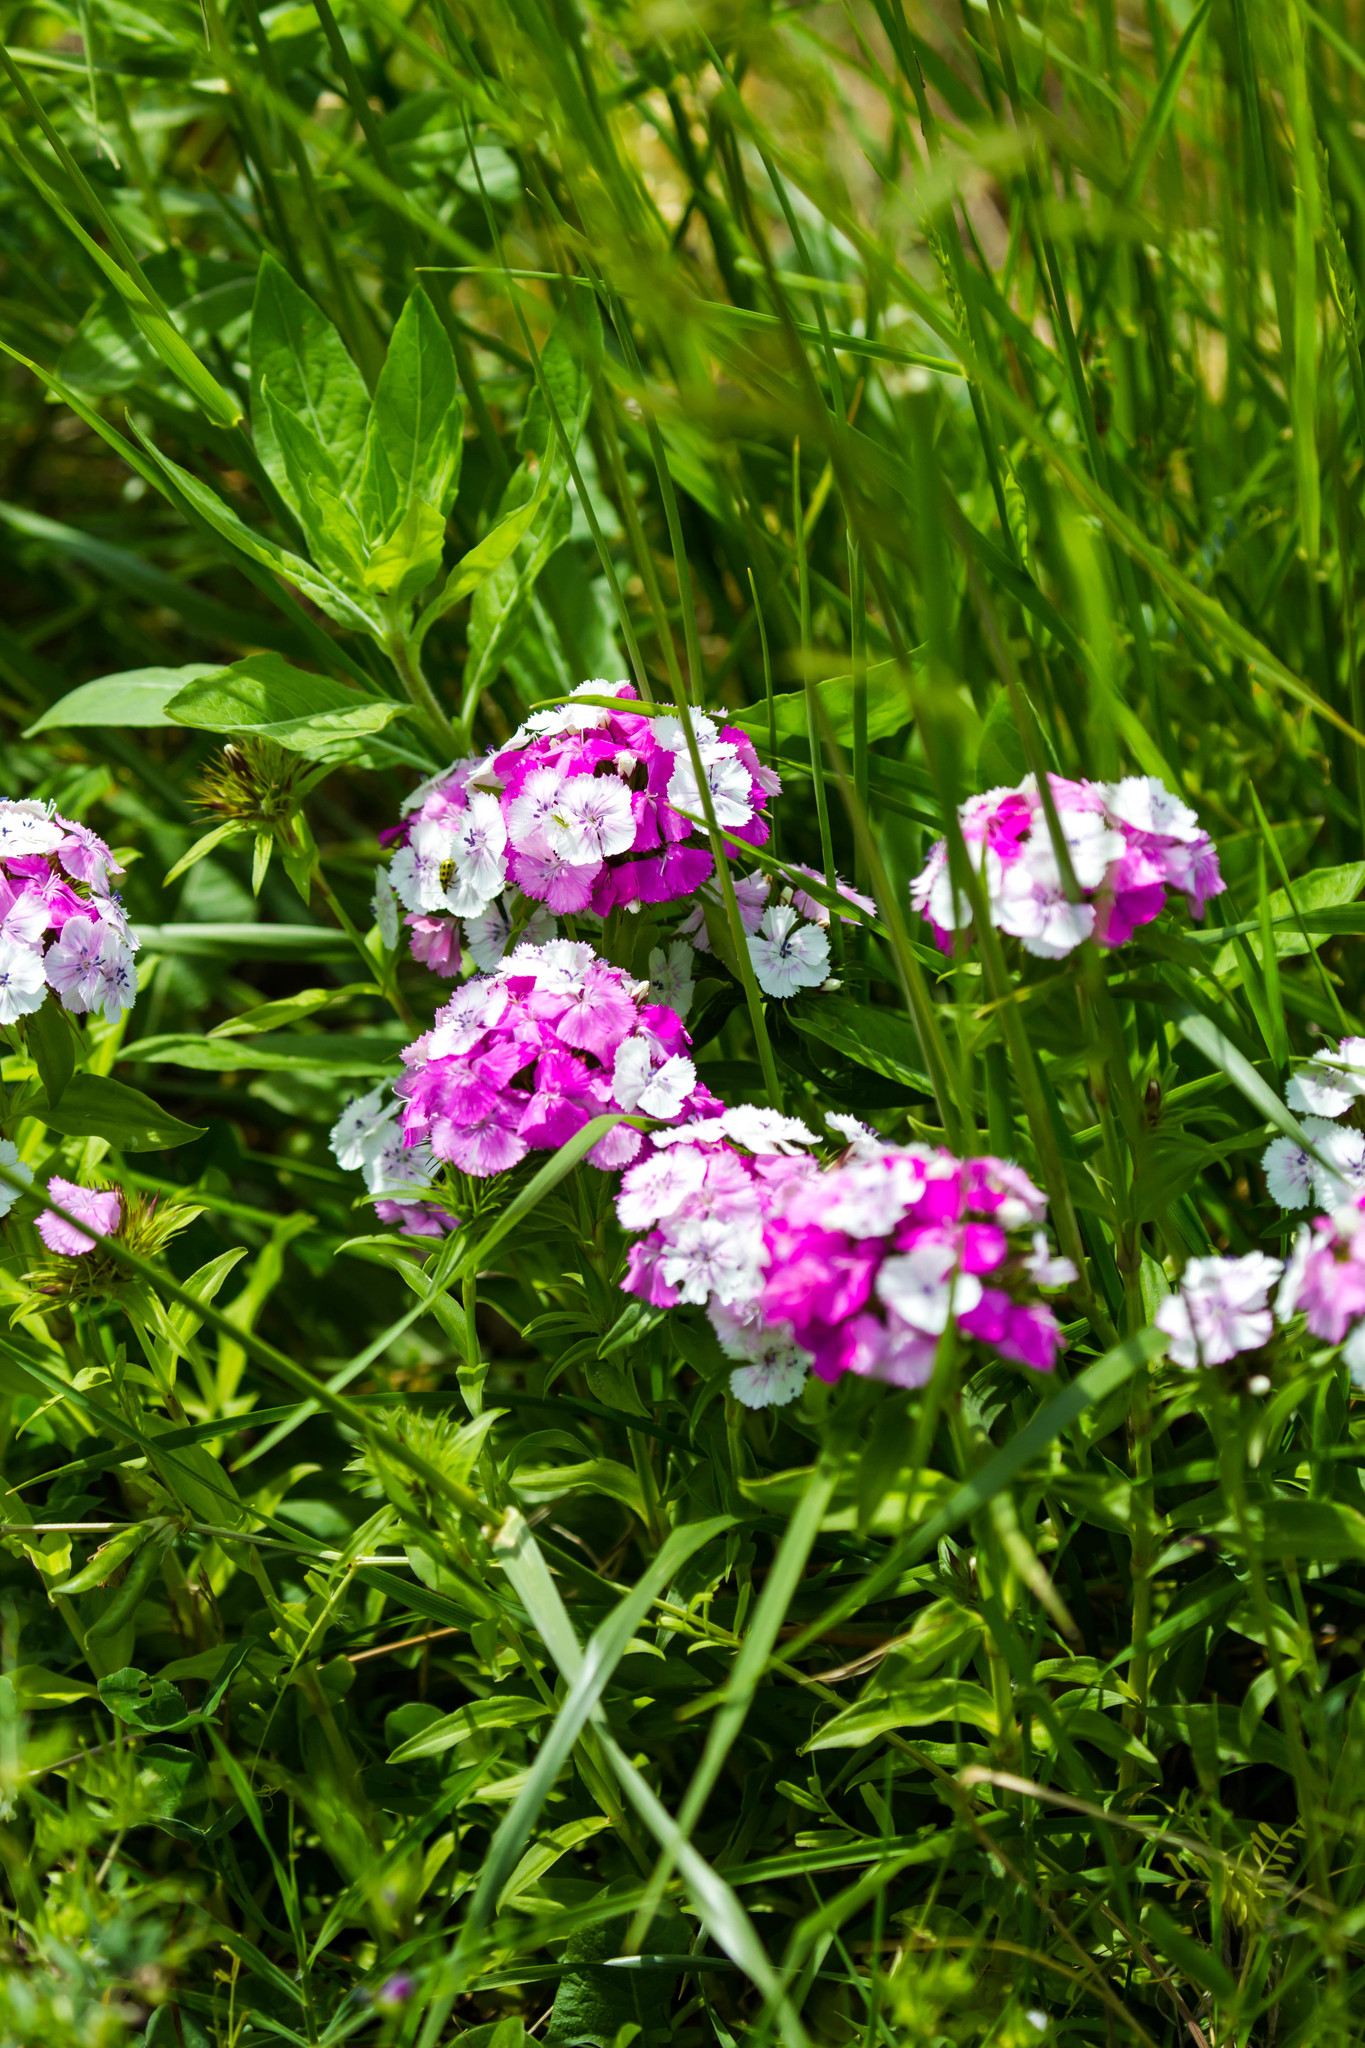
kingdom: Plantae
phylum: Tracheophyta
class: Magnoliopsida
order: Caryophyllales
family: Caryophyllaceae
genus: Dianthus
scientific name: Dianthus barbatus
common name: Sweet-william
